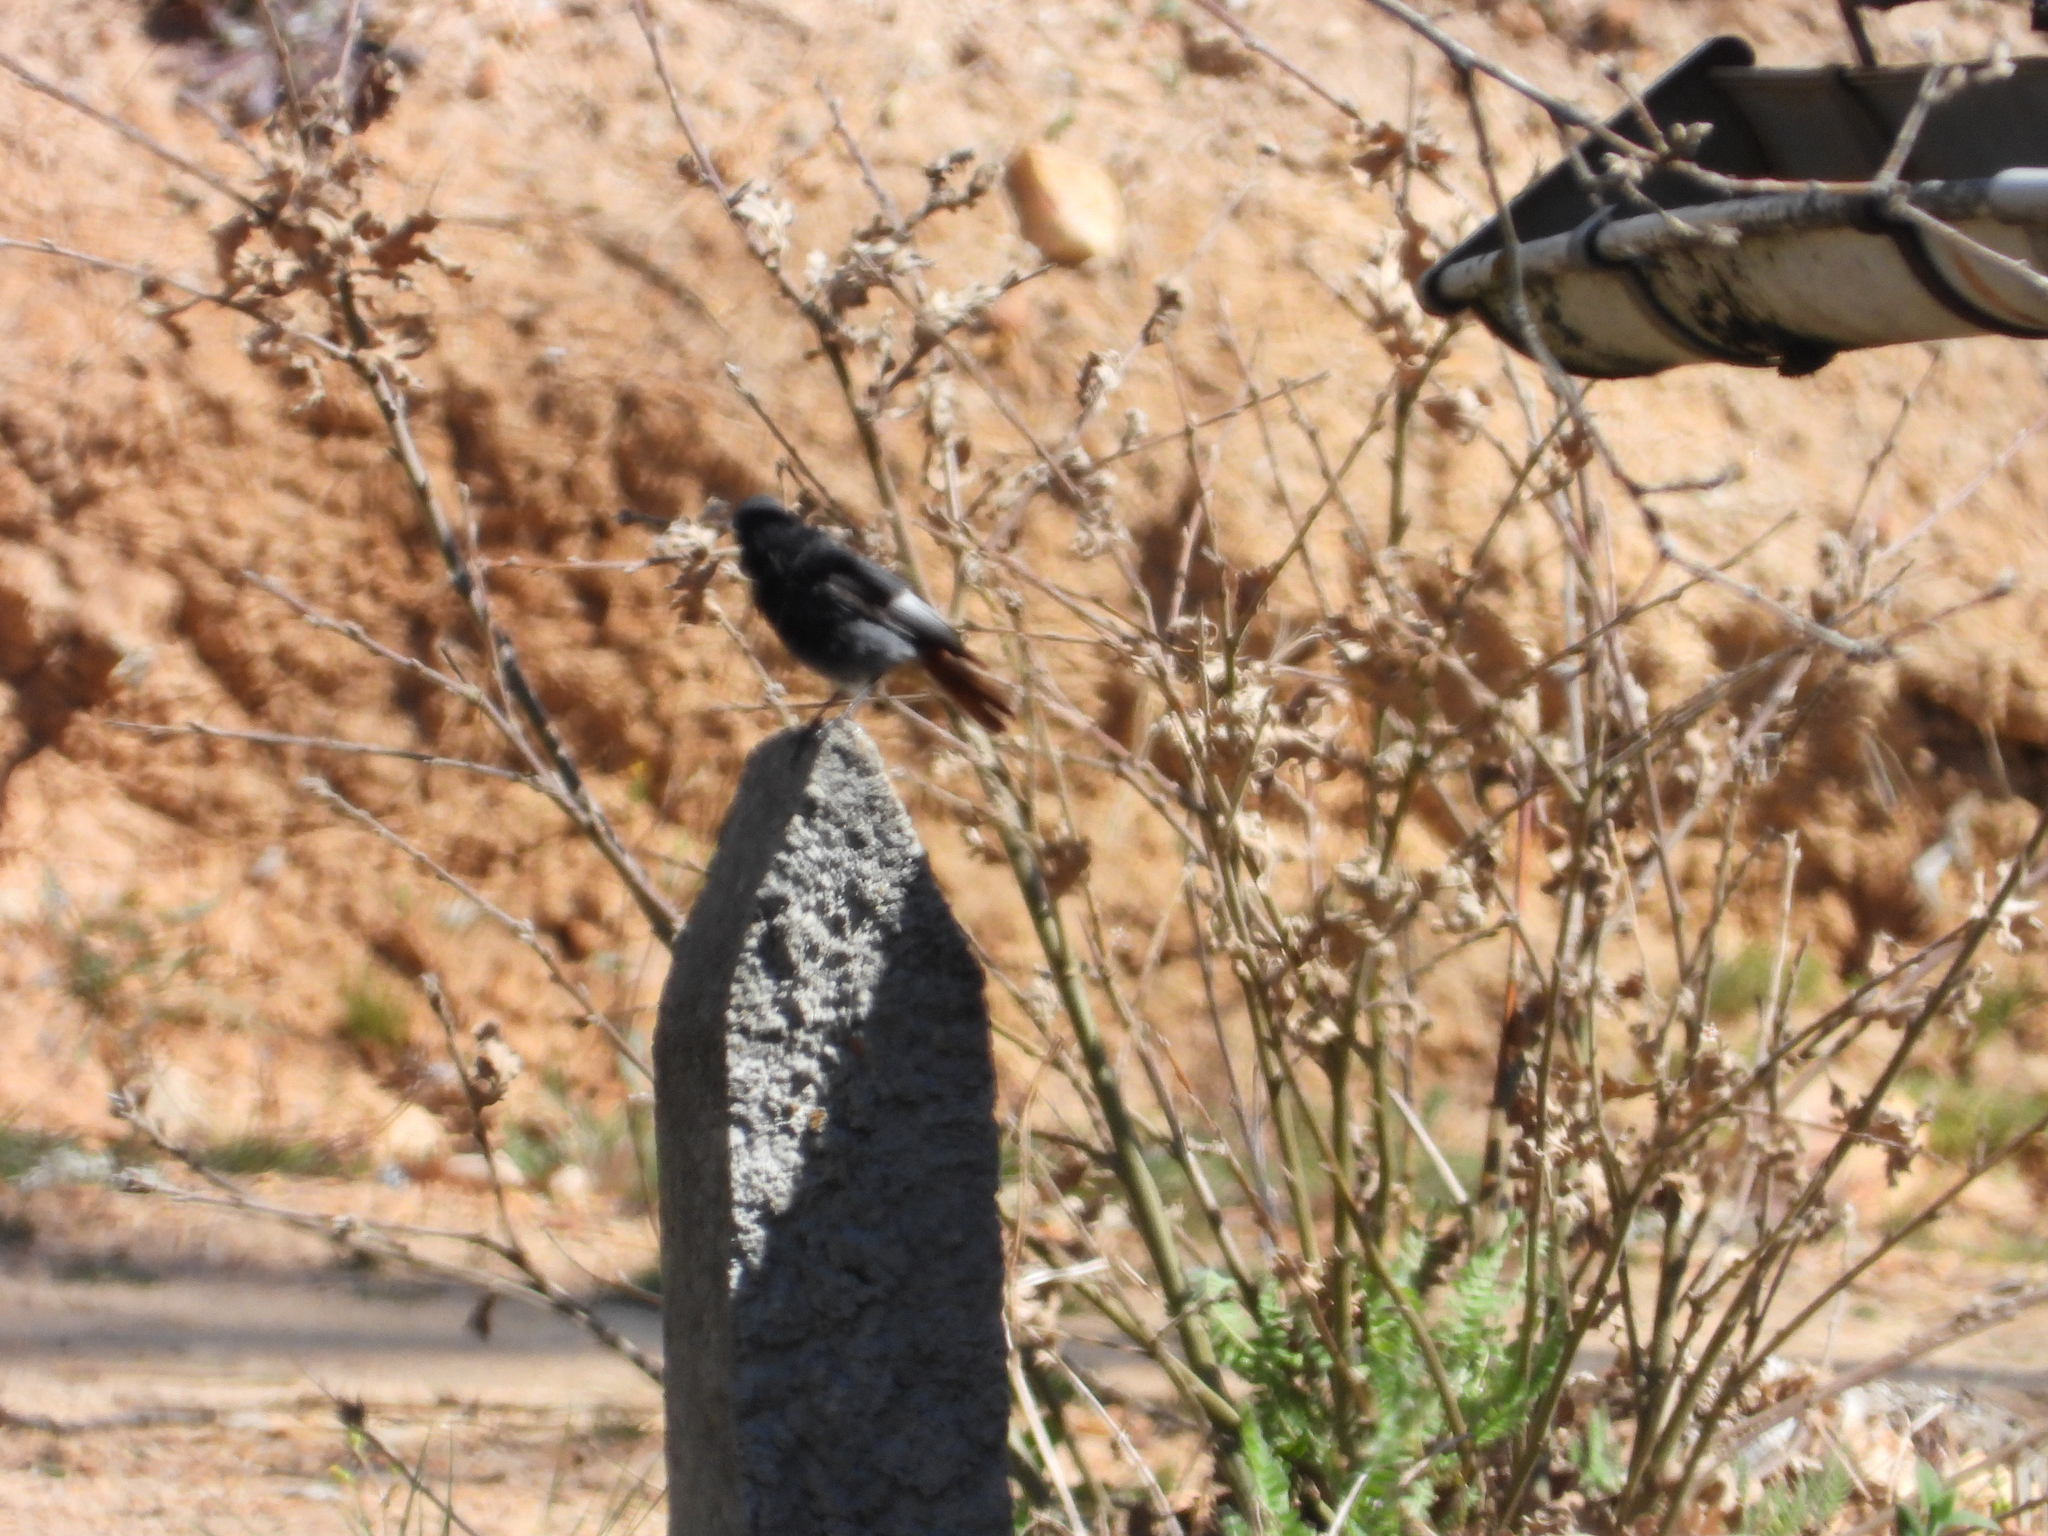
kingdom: Animalia
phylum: Chordata
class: Aves
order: Passeriformes
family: Muscicapidae
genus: Phoenicurus
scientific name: Phoenicurus ochruros
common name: Black redstart
